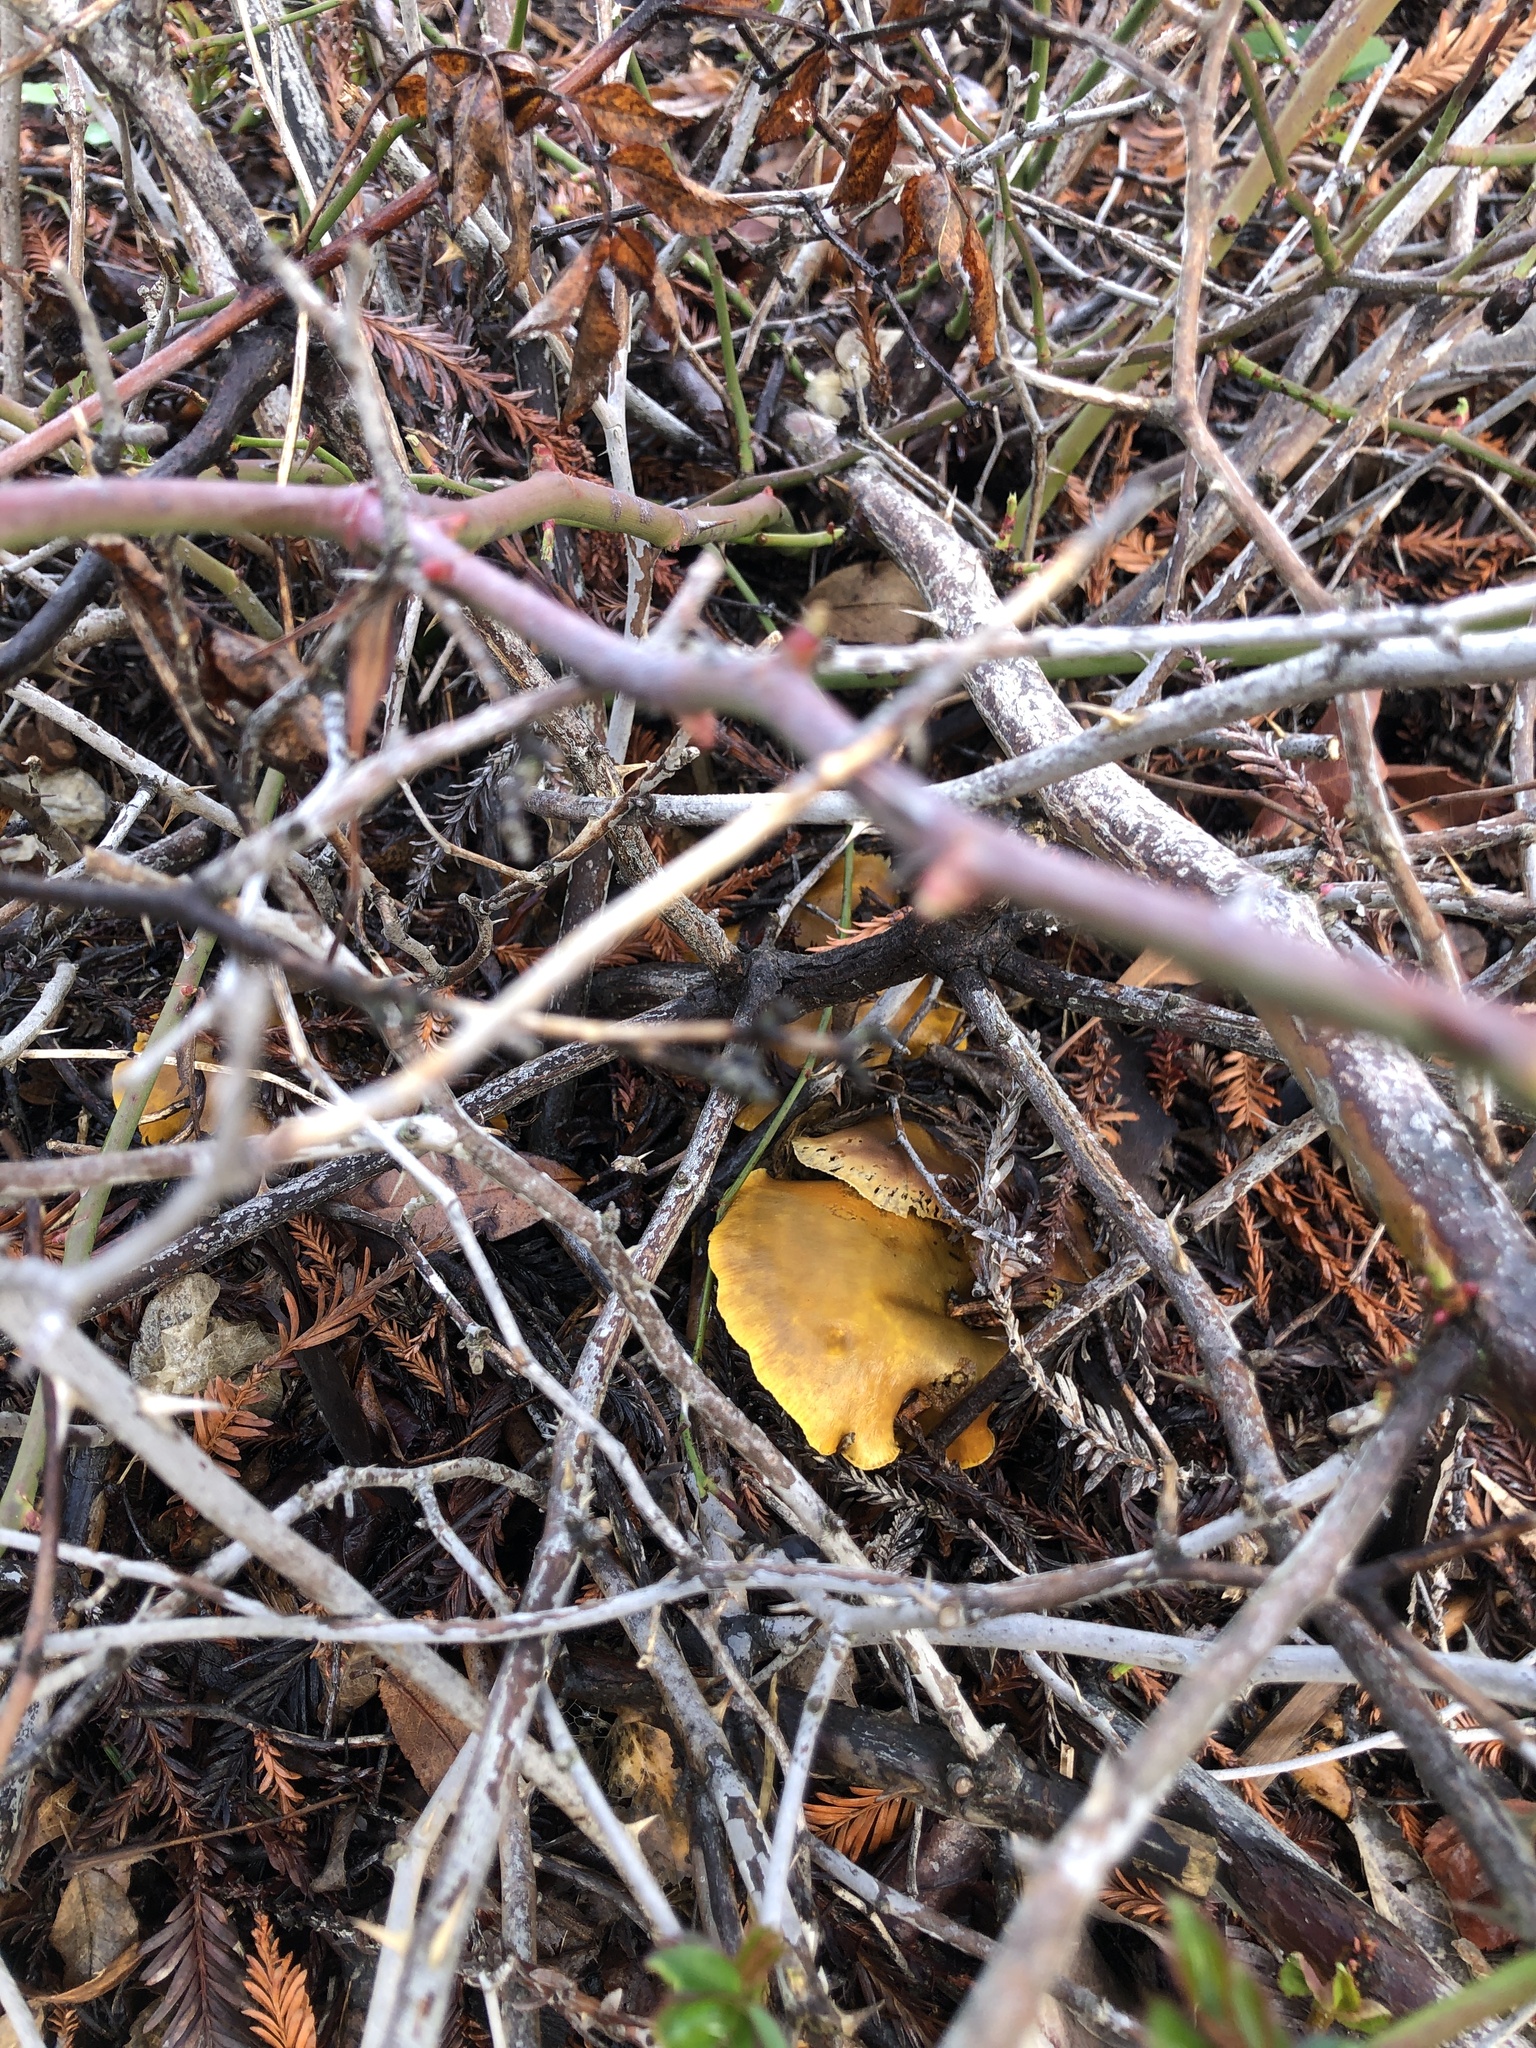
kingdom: Fungi
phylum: Basidiomycota
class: Agaricomycetes
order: Agaricales
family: Omphalotaceae
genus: Omphalotus
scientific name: Omphalotus olivascens
